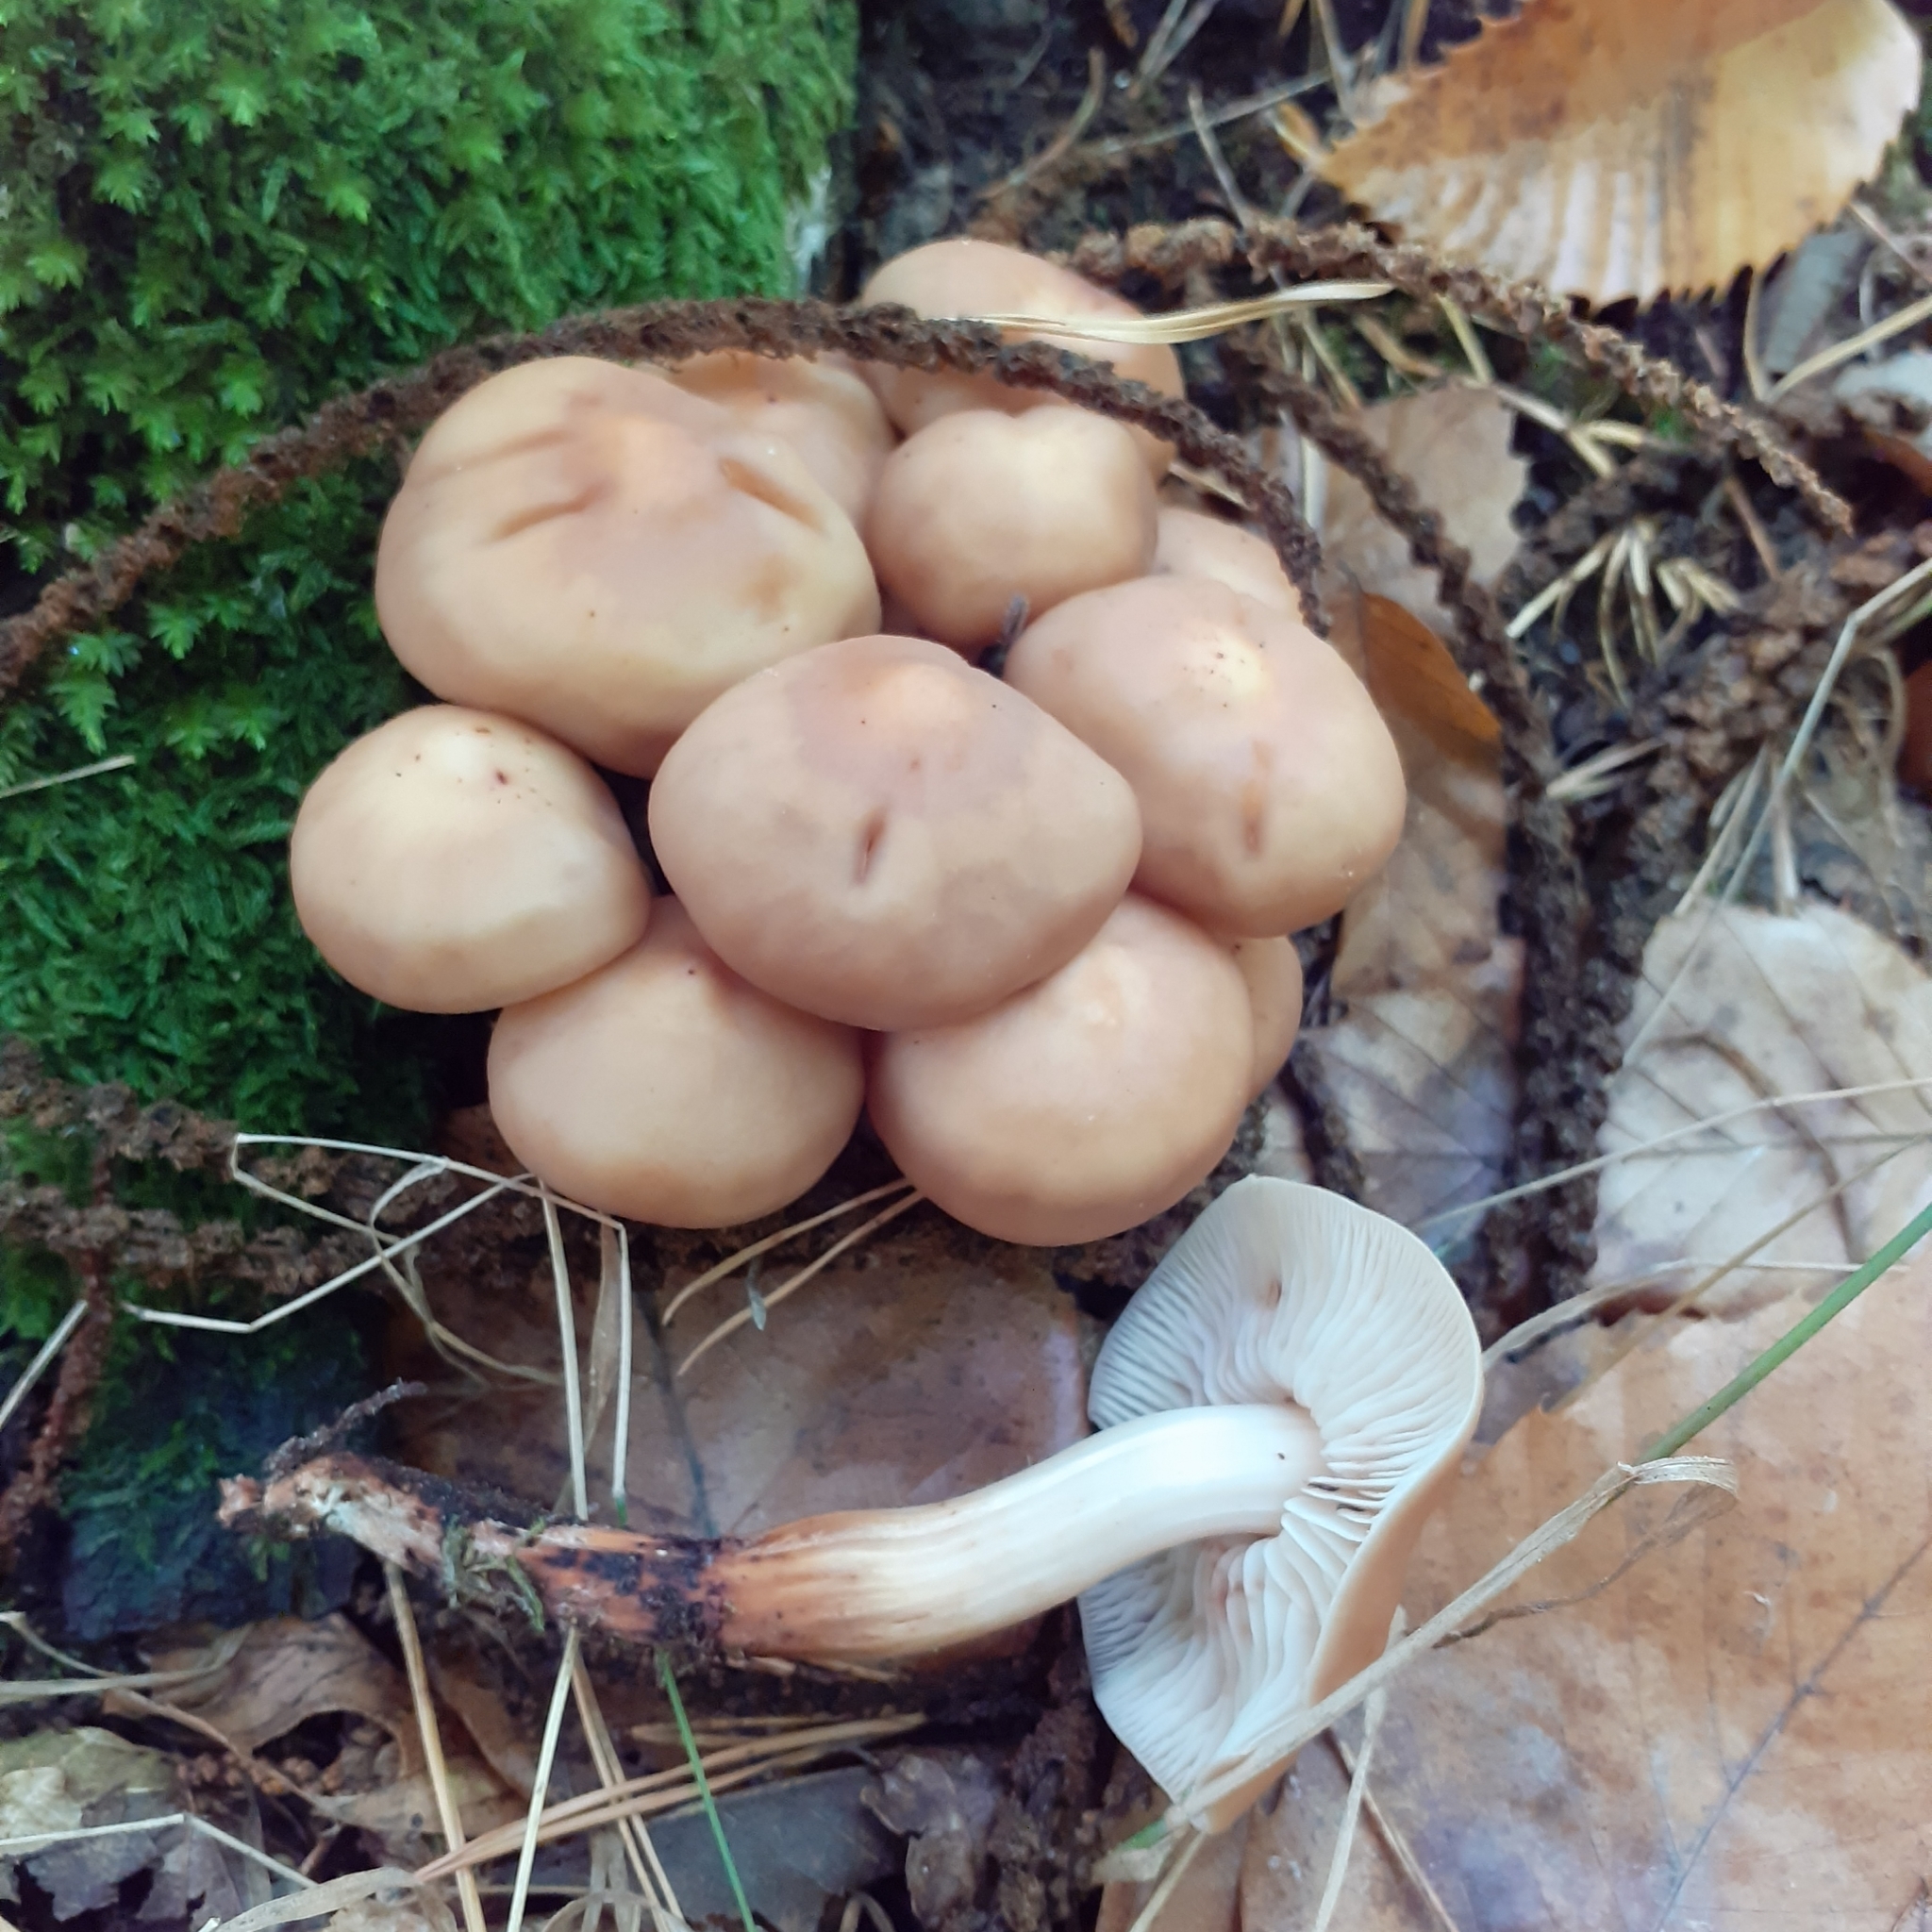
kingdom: Fungi
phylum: Basidiomycota
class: Agaricomycetes
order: Agaricales
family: Omphalotaceae
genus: Gymnopus
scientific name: Gymnopus fusipes
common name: Spindle shank
